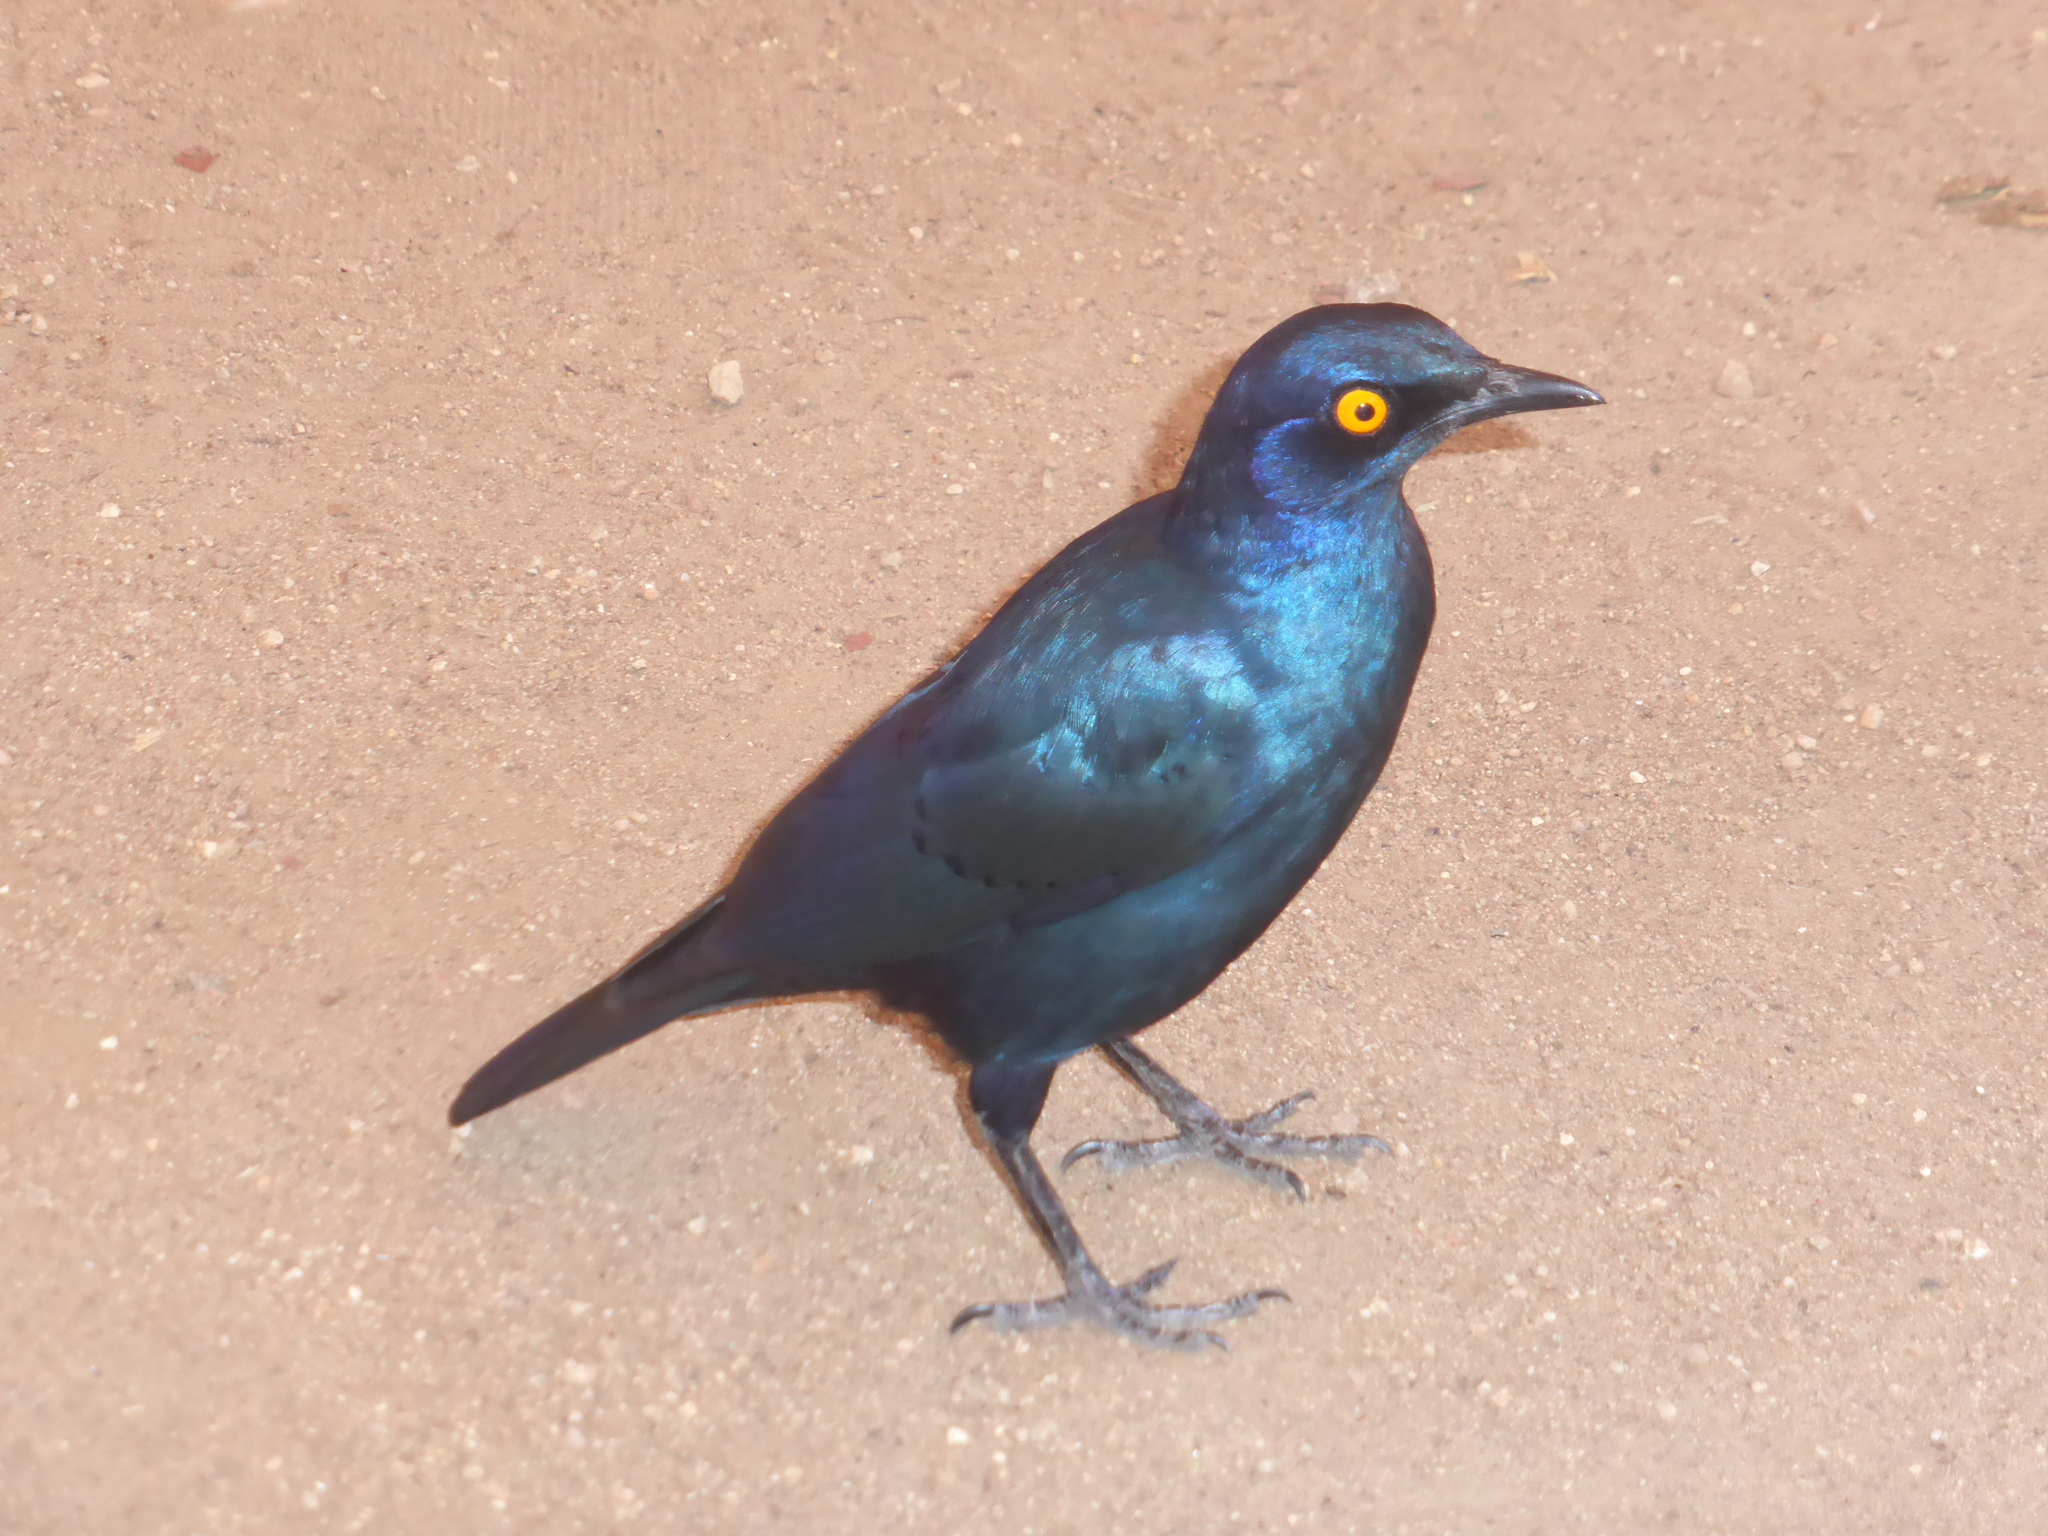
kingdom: Animalia
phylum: Chordata
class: Aves
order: Passeriformes
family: Sturnidae
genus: Lamprotornis
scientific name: Lamprotornis nitens
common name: Cape starling
